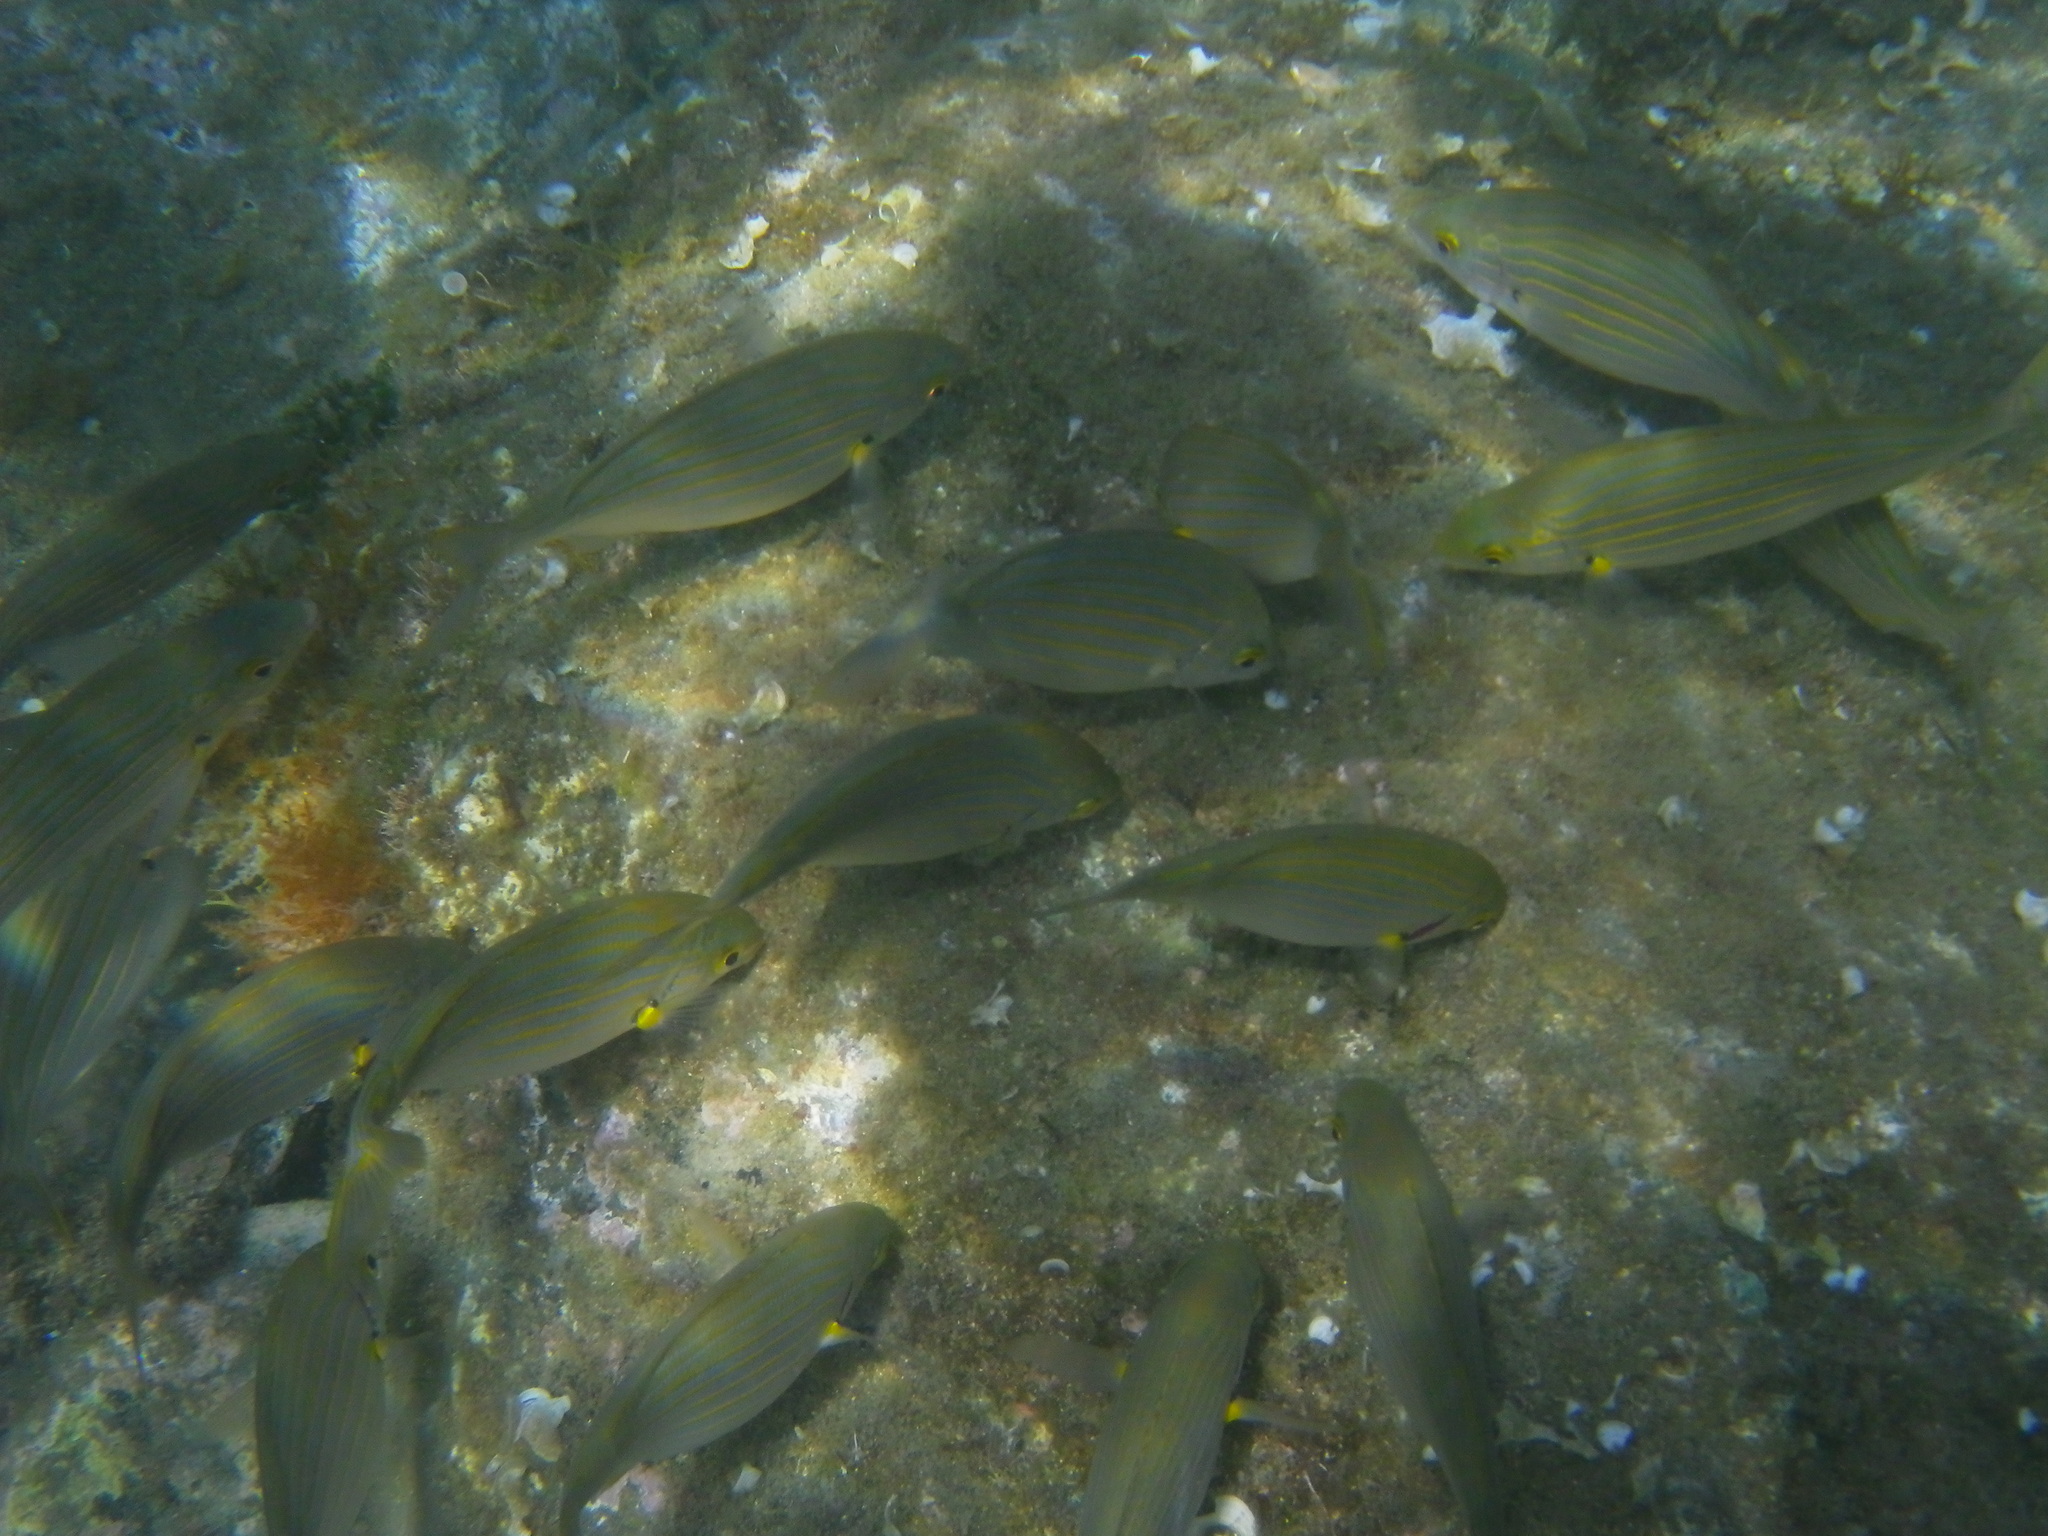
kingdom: Animalia
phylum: Chordata
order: Perciformes
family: Sparidae
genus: Sarpa
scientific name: Sarpa salpa
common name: Salema
